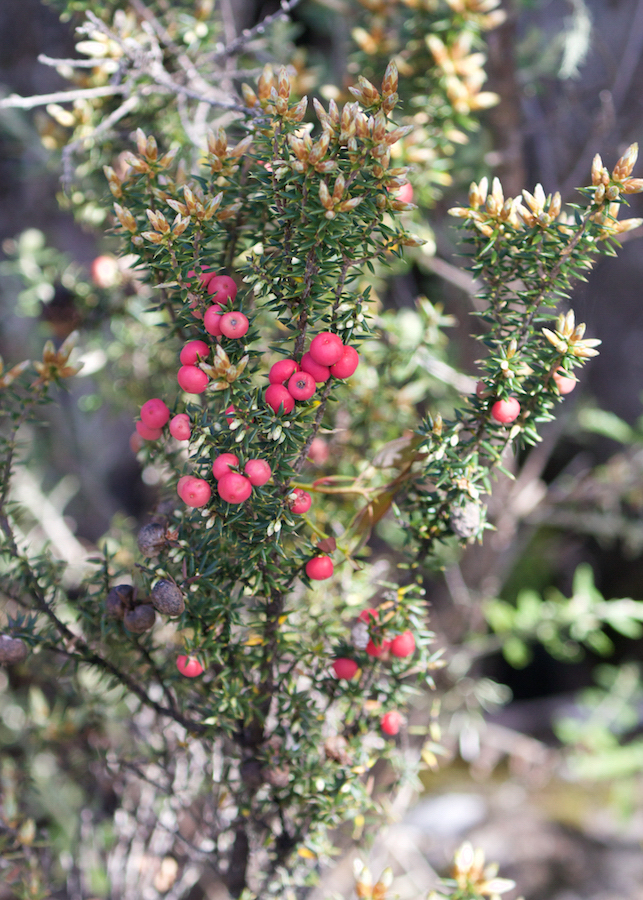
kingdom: Plantae
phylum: Tracheophyta
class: Magnoliopsida
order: Ericales
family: Ericaceae
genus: Leptecophylla
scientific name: Leptecophylla parvifolia
